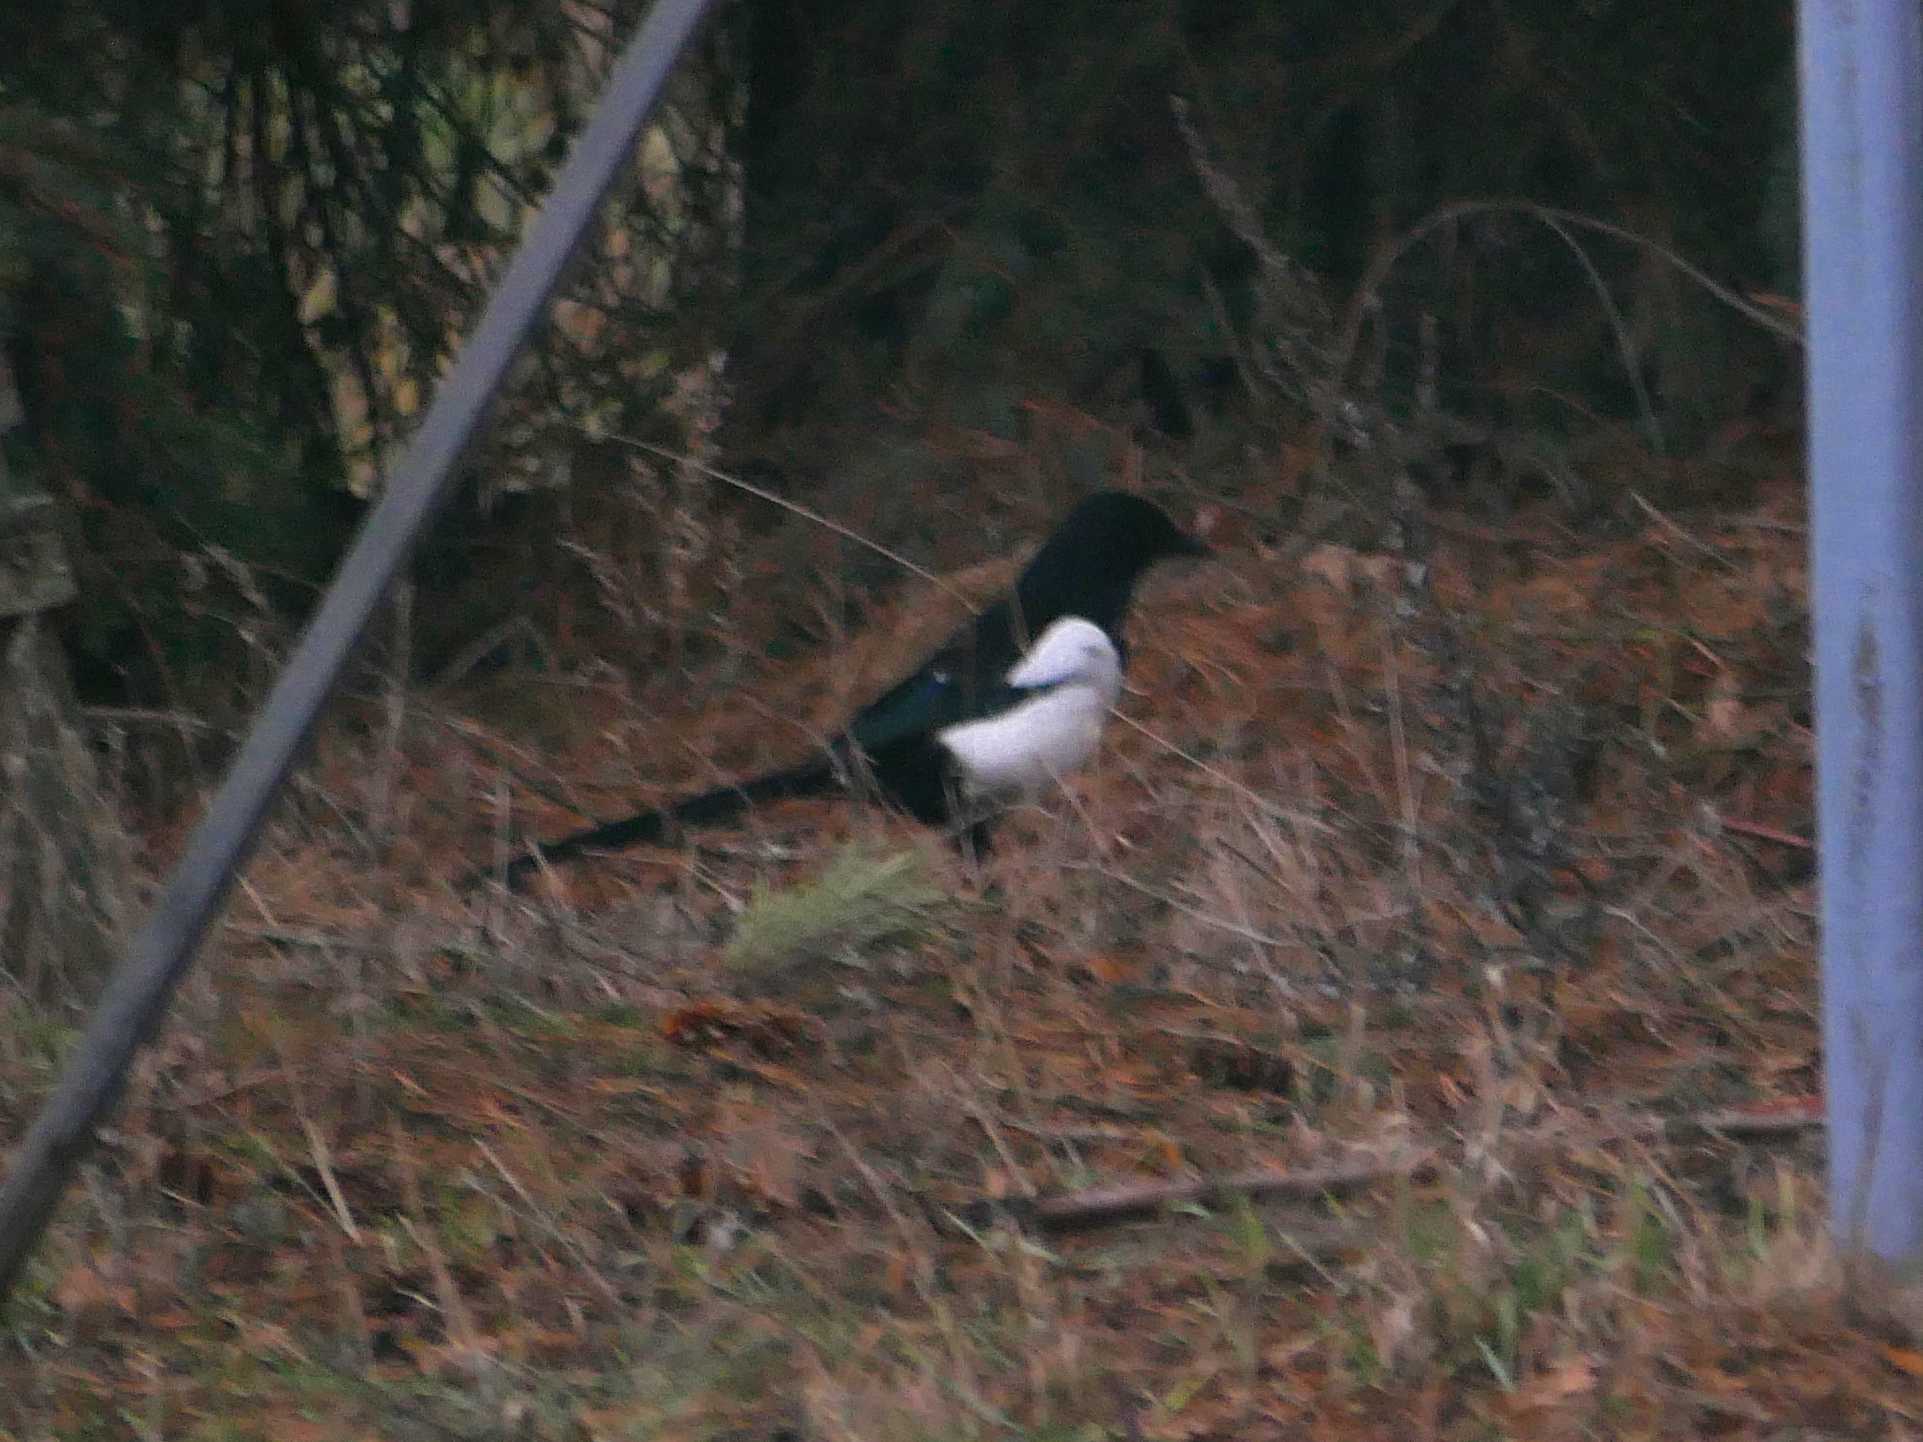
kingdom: Animalia
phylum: Chordata
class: Aves
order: Passeriformes
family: Corvidae
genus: Pica
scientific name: Pica pica
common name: Eurasian magpie
